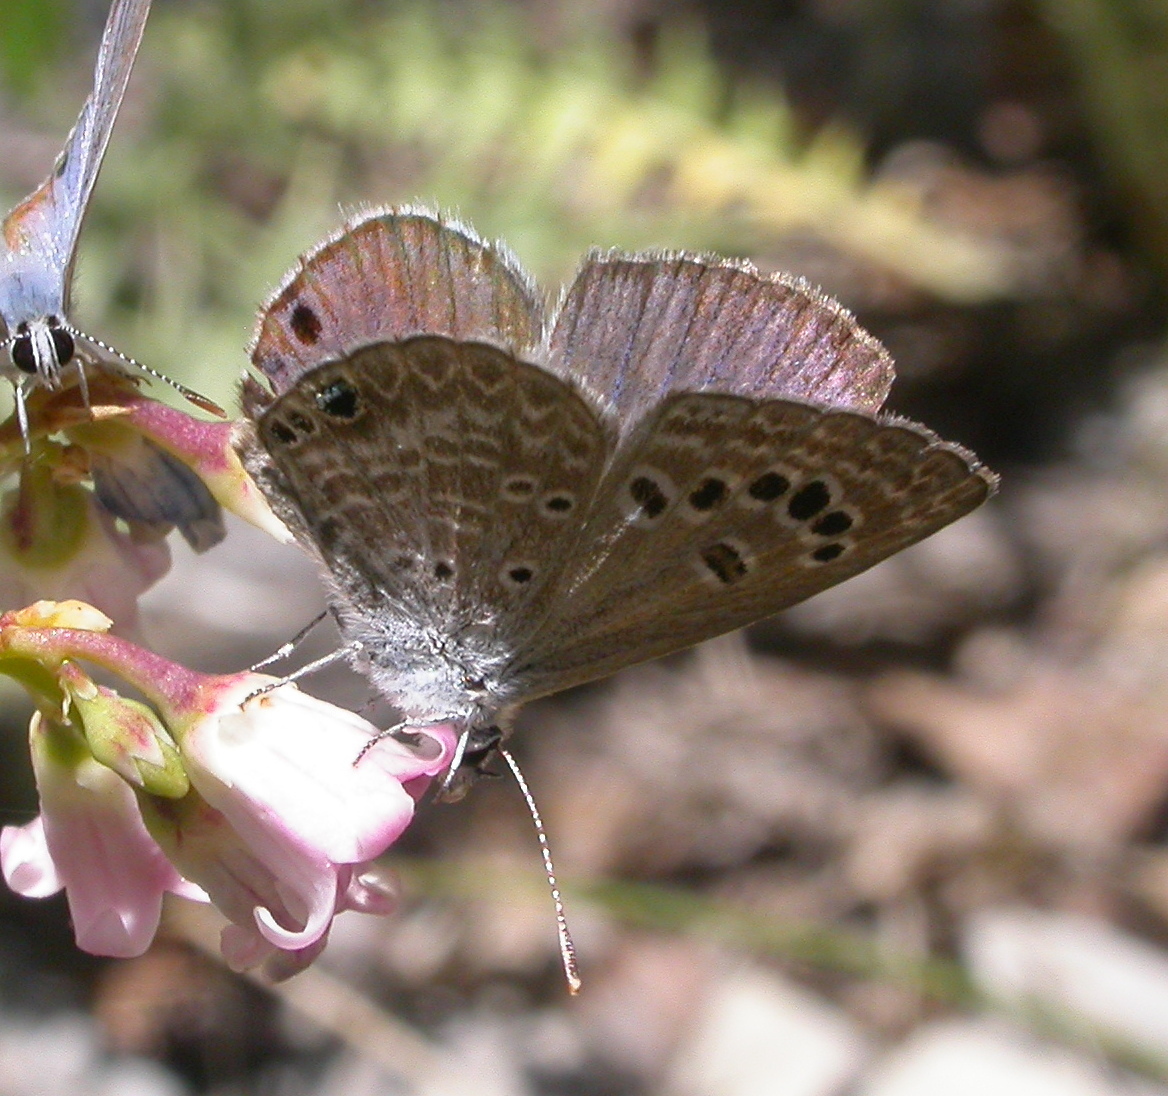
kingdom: Animalia
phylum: Arthropoda
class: Insecta
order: Lepidoptera
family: Lycaenidae
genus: Echinargus
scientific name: Echinargus isola
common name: Reakirt's blue
